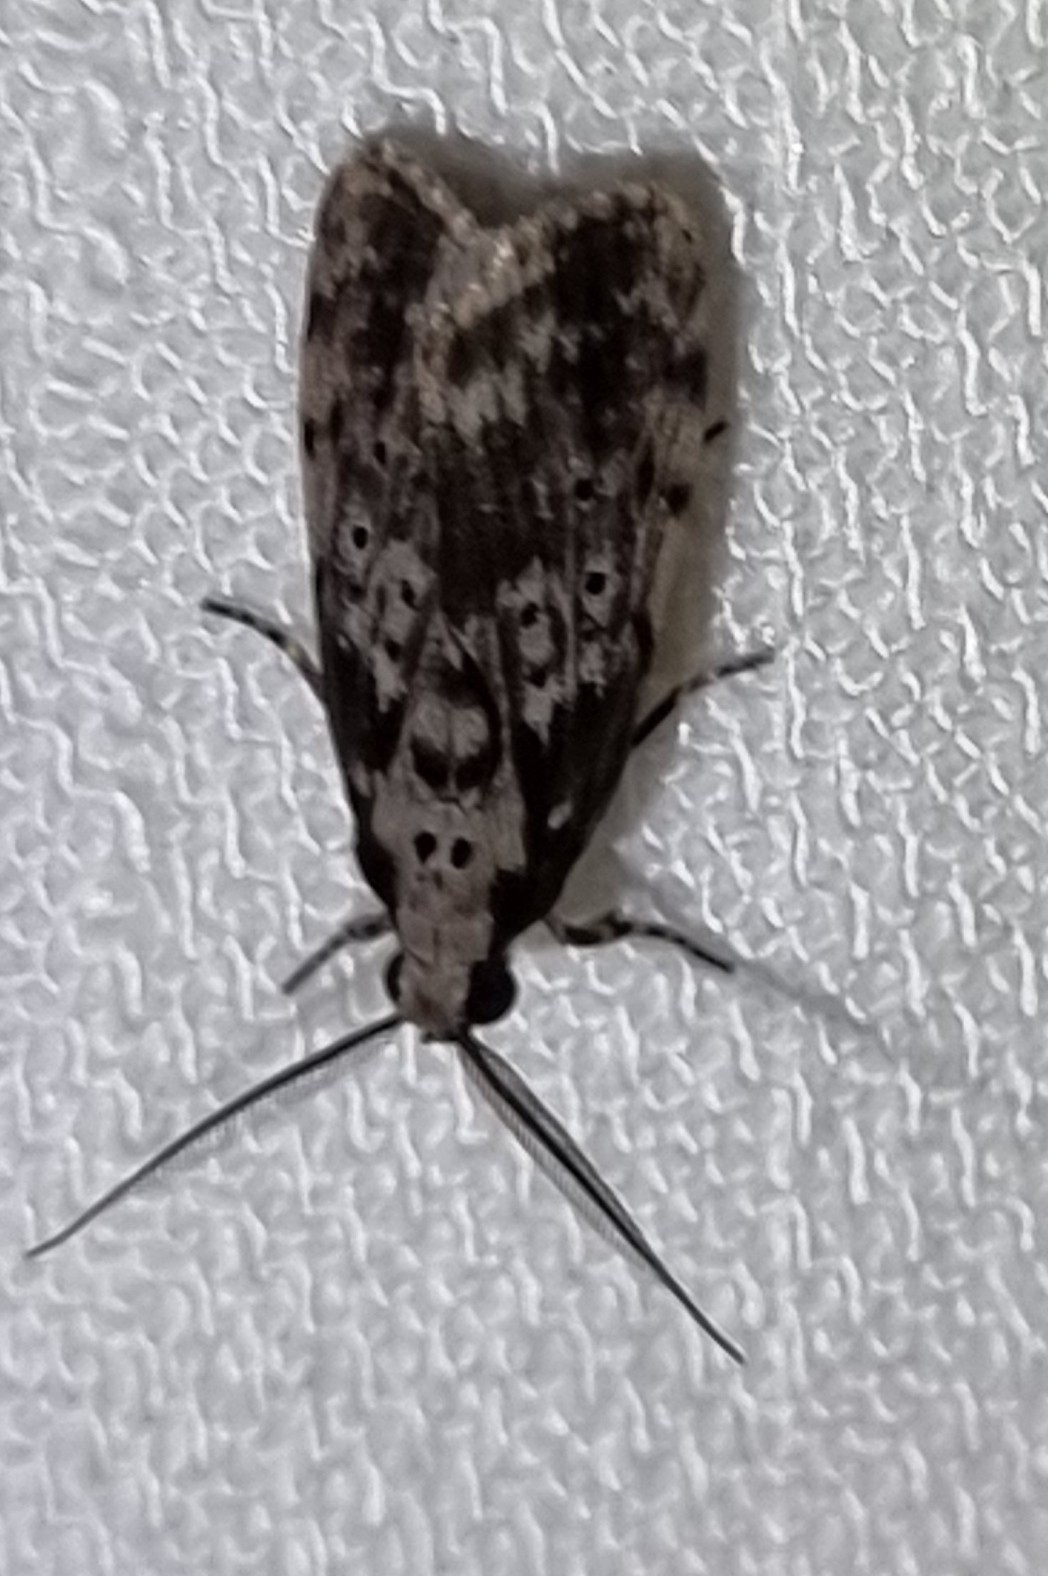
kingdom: Animalia
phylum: Arthropoda
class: Insecta
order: Lepidoptera
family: Erebidae
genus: Digama
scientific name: Digama Sommeria marmorea
